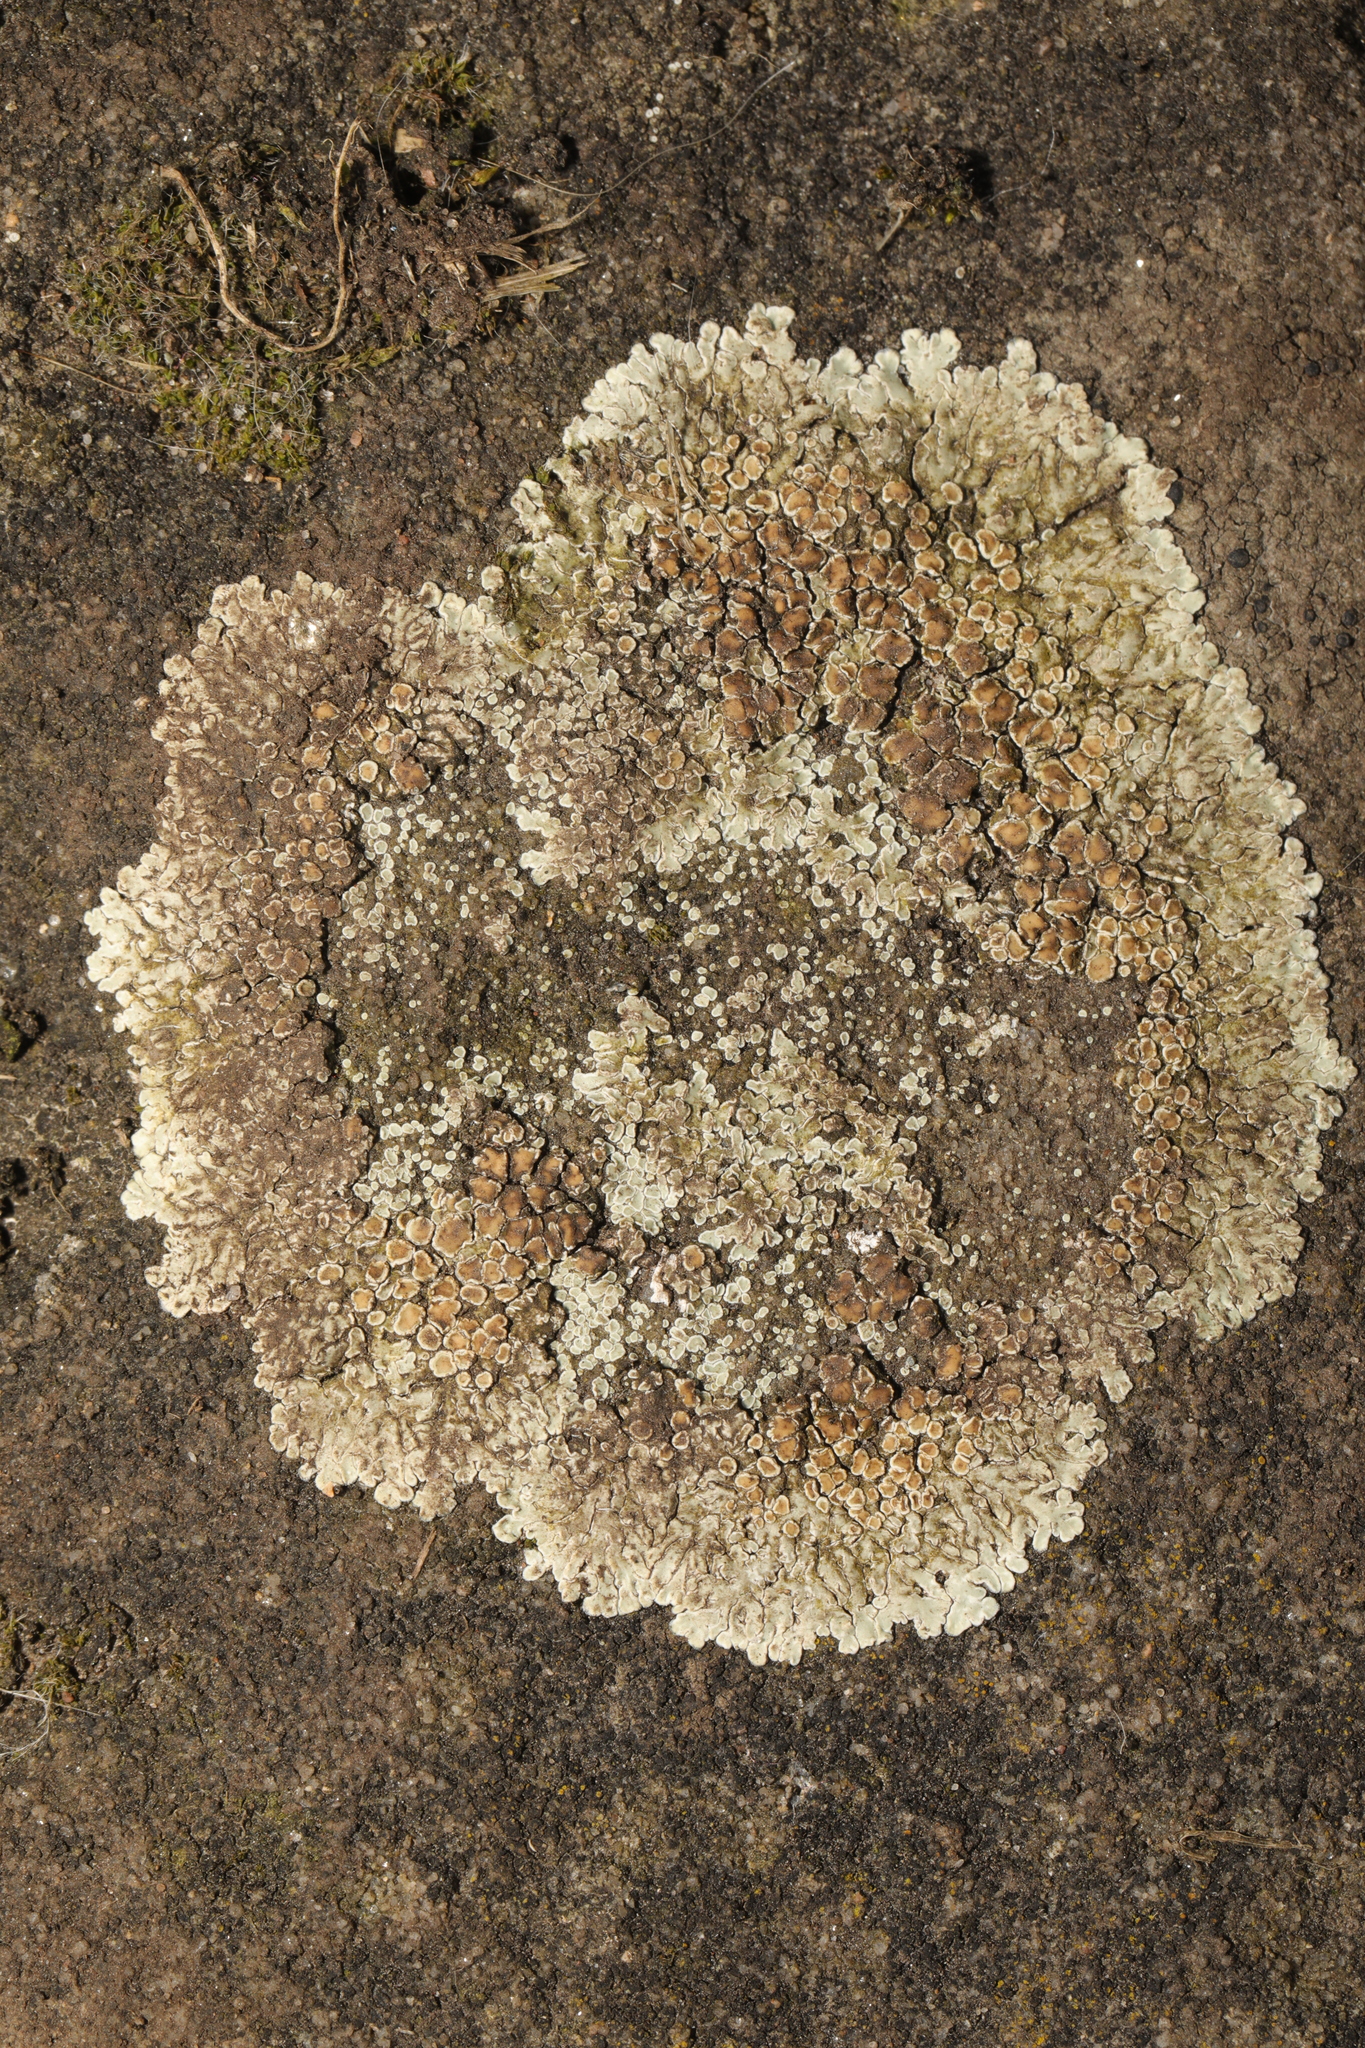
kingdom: Fungi
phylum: Ascomycota
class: Lecanoromycetes
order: Lecanorales
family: Lecanoraceae
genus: Protoparmeliopsis
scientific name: Protoparmeliopsis muralis
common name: Stonewall rim lichen
